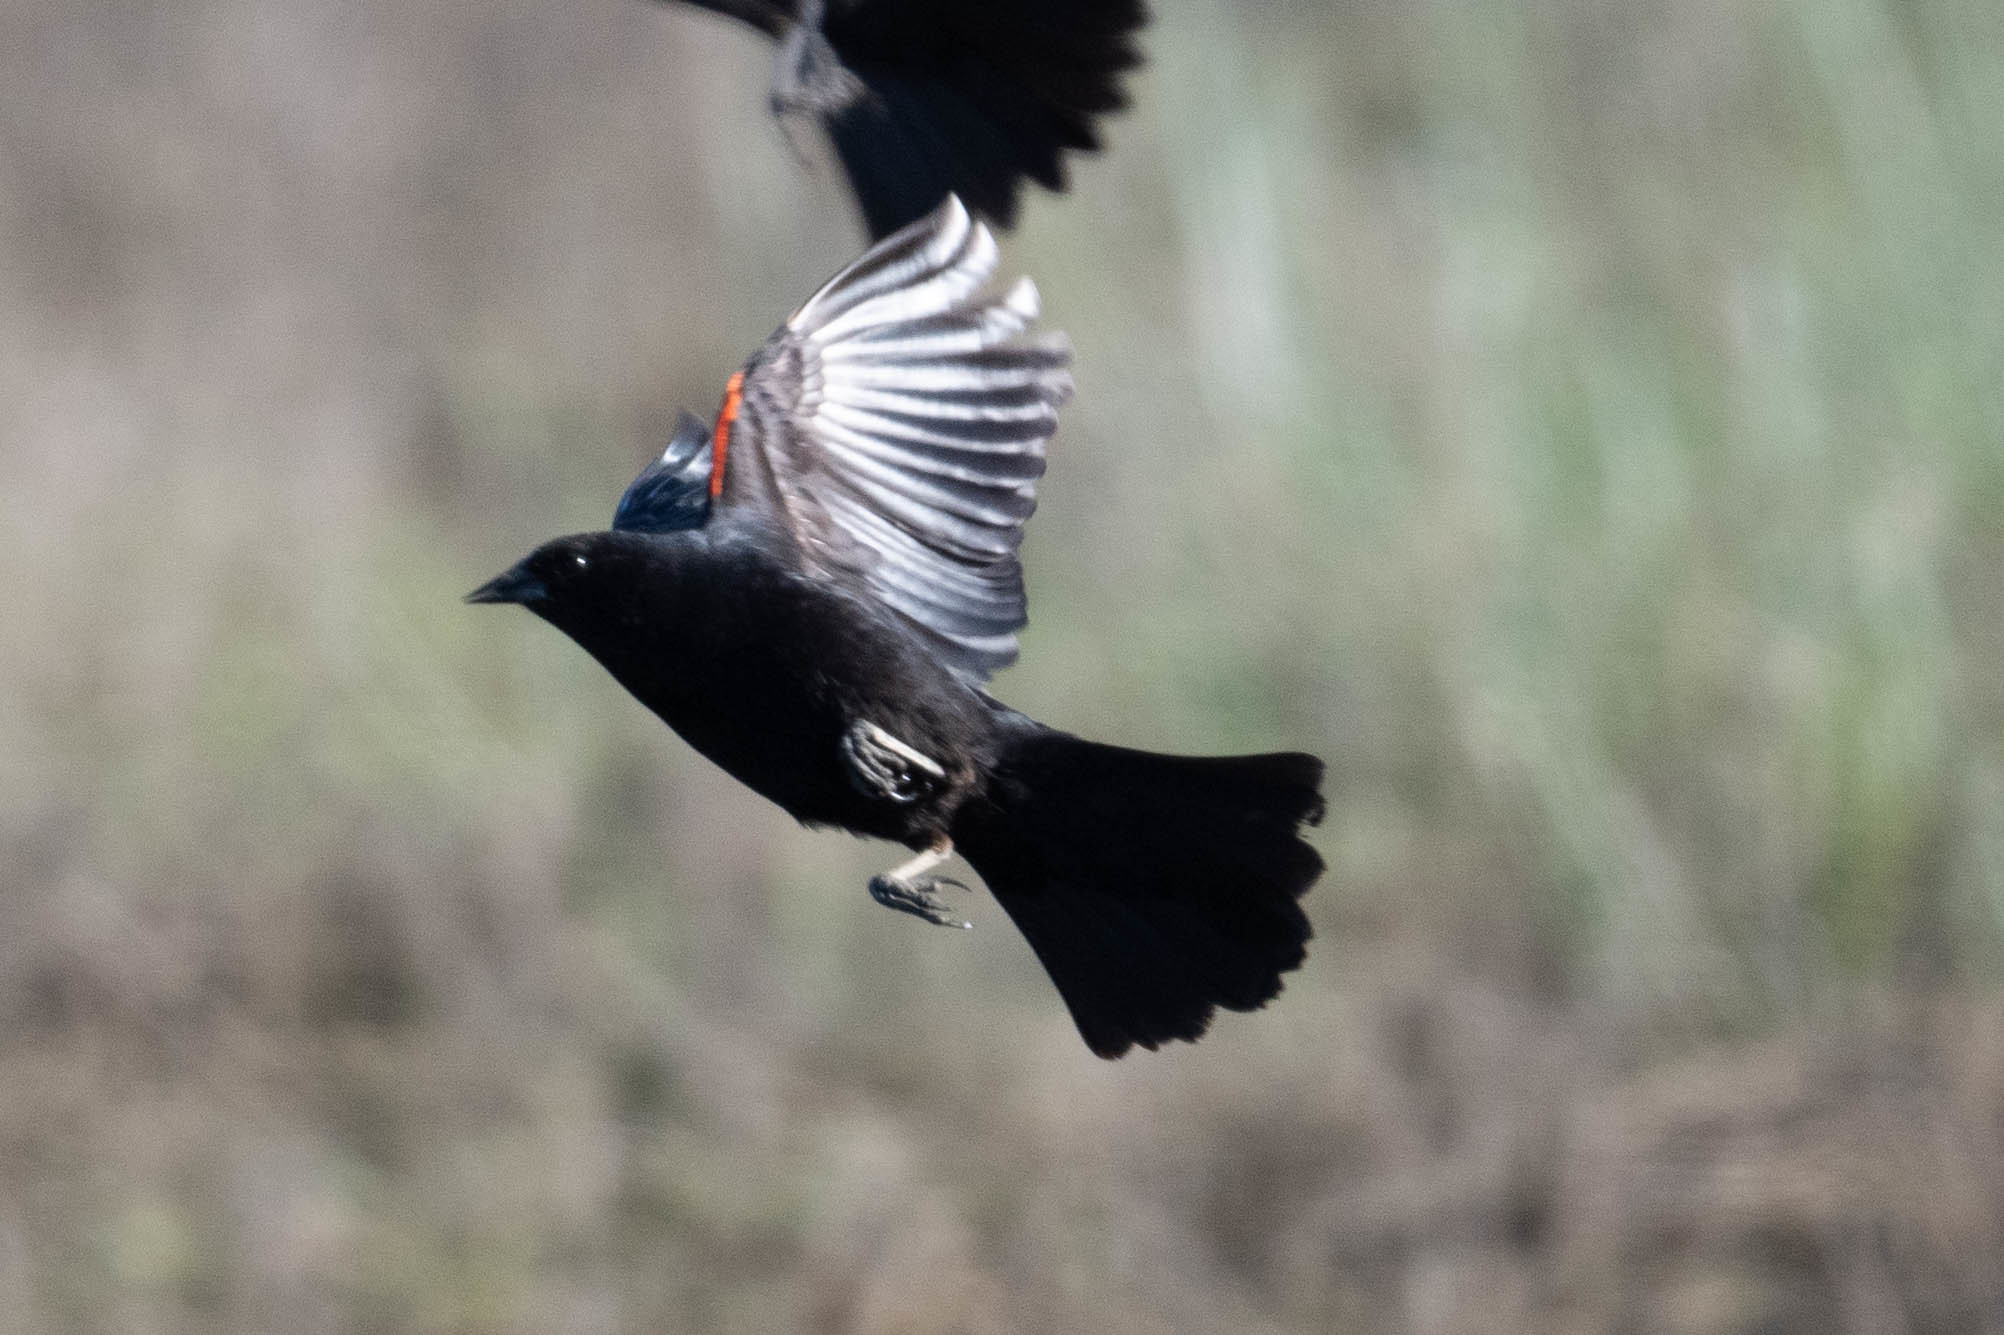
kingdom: Animalia
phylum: Chordata
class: Aves
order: Passeriformes
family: Icteridae
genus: Agelaius
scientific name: Agelaius phoeniceus
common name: Red-winged blackbird
